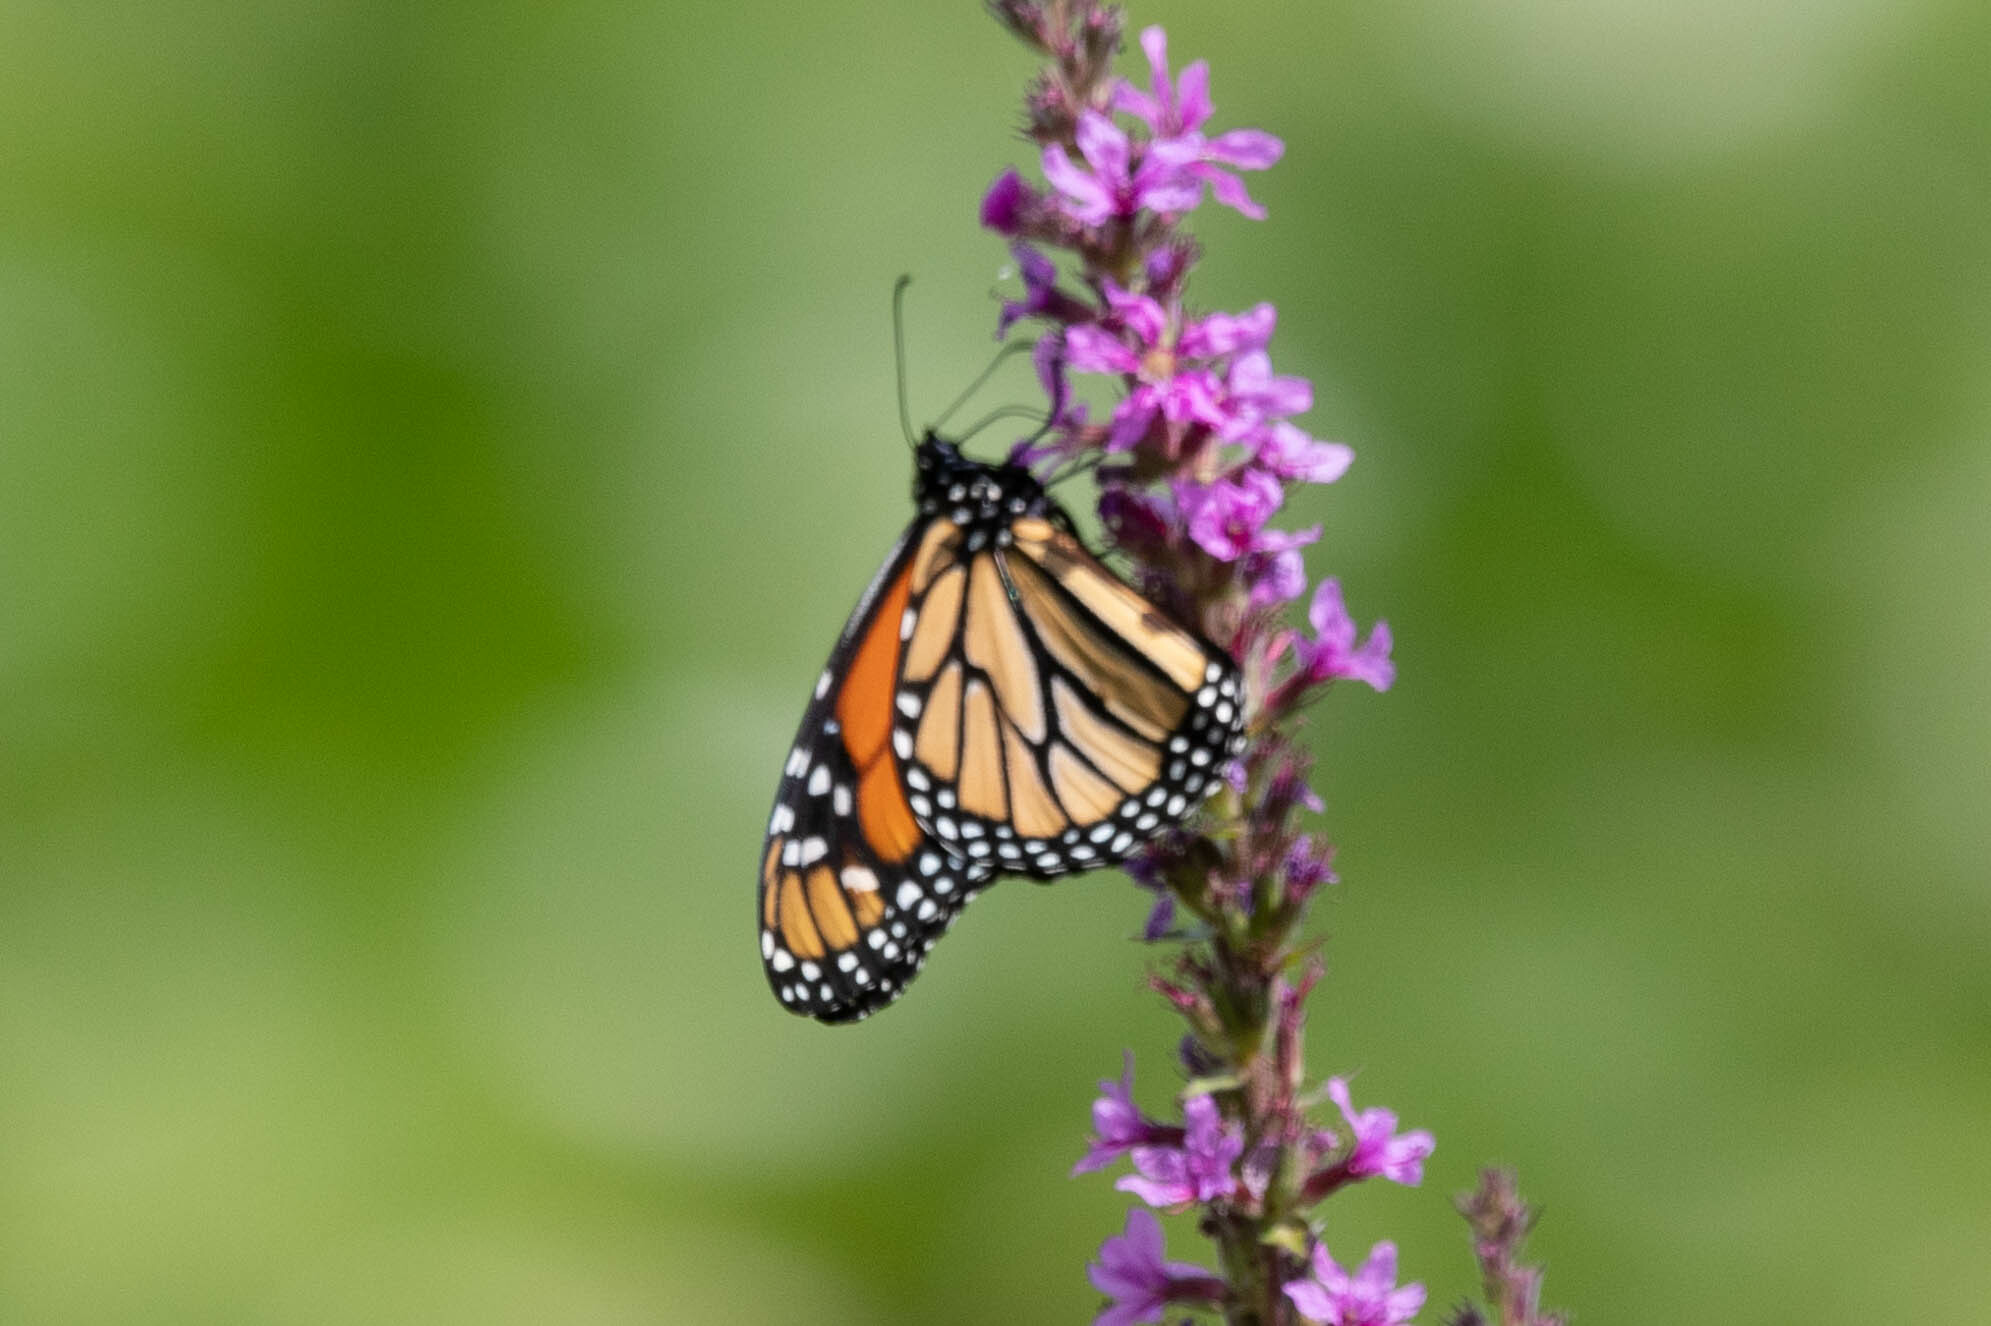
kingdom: Animalia
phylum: Arthropoda
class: Insecta
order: Lepidoptera
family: Nymphalidae
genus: Danaus
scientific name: Danaus plexippus
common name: Monarch
